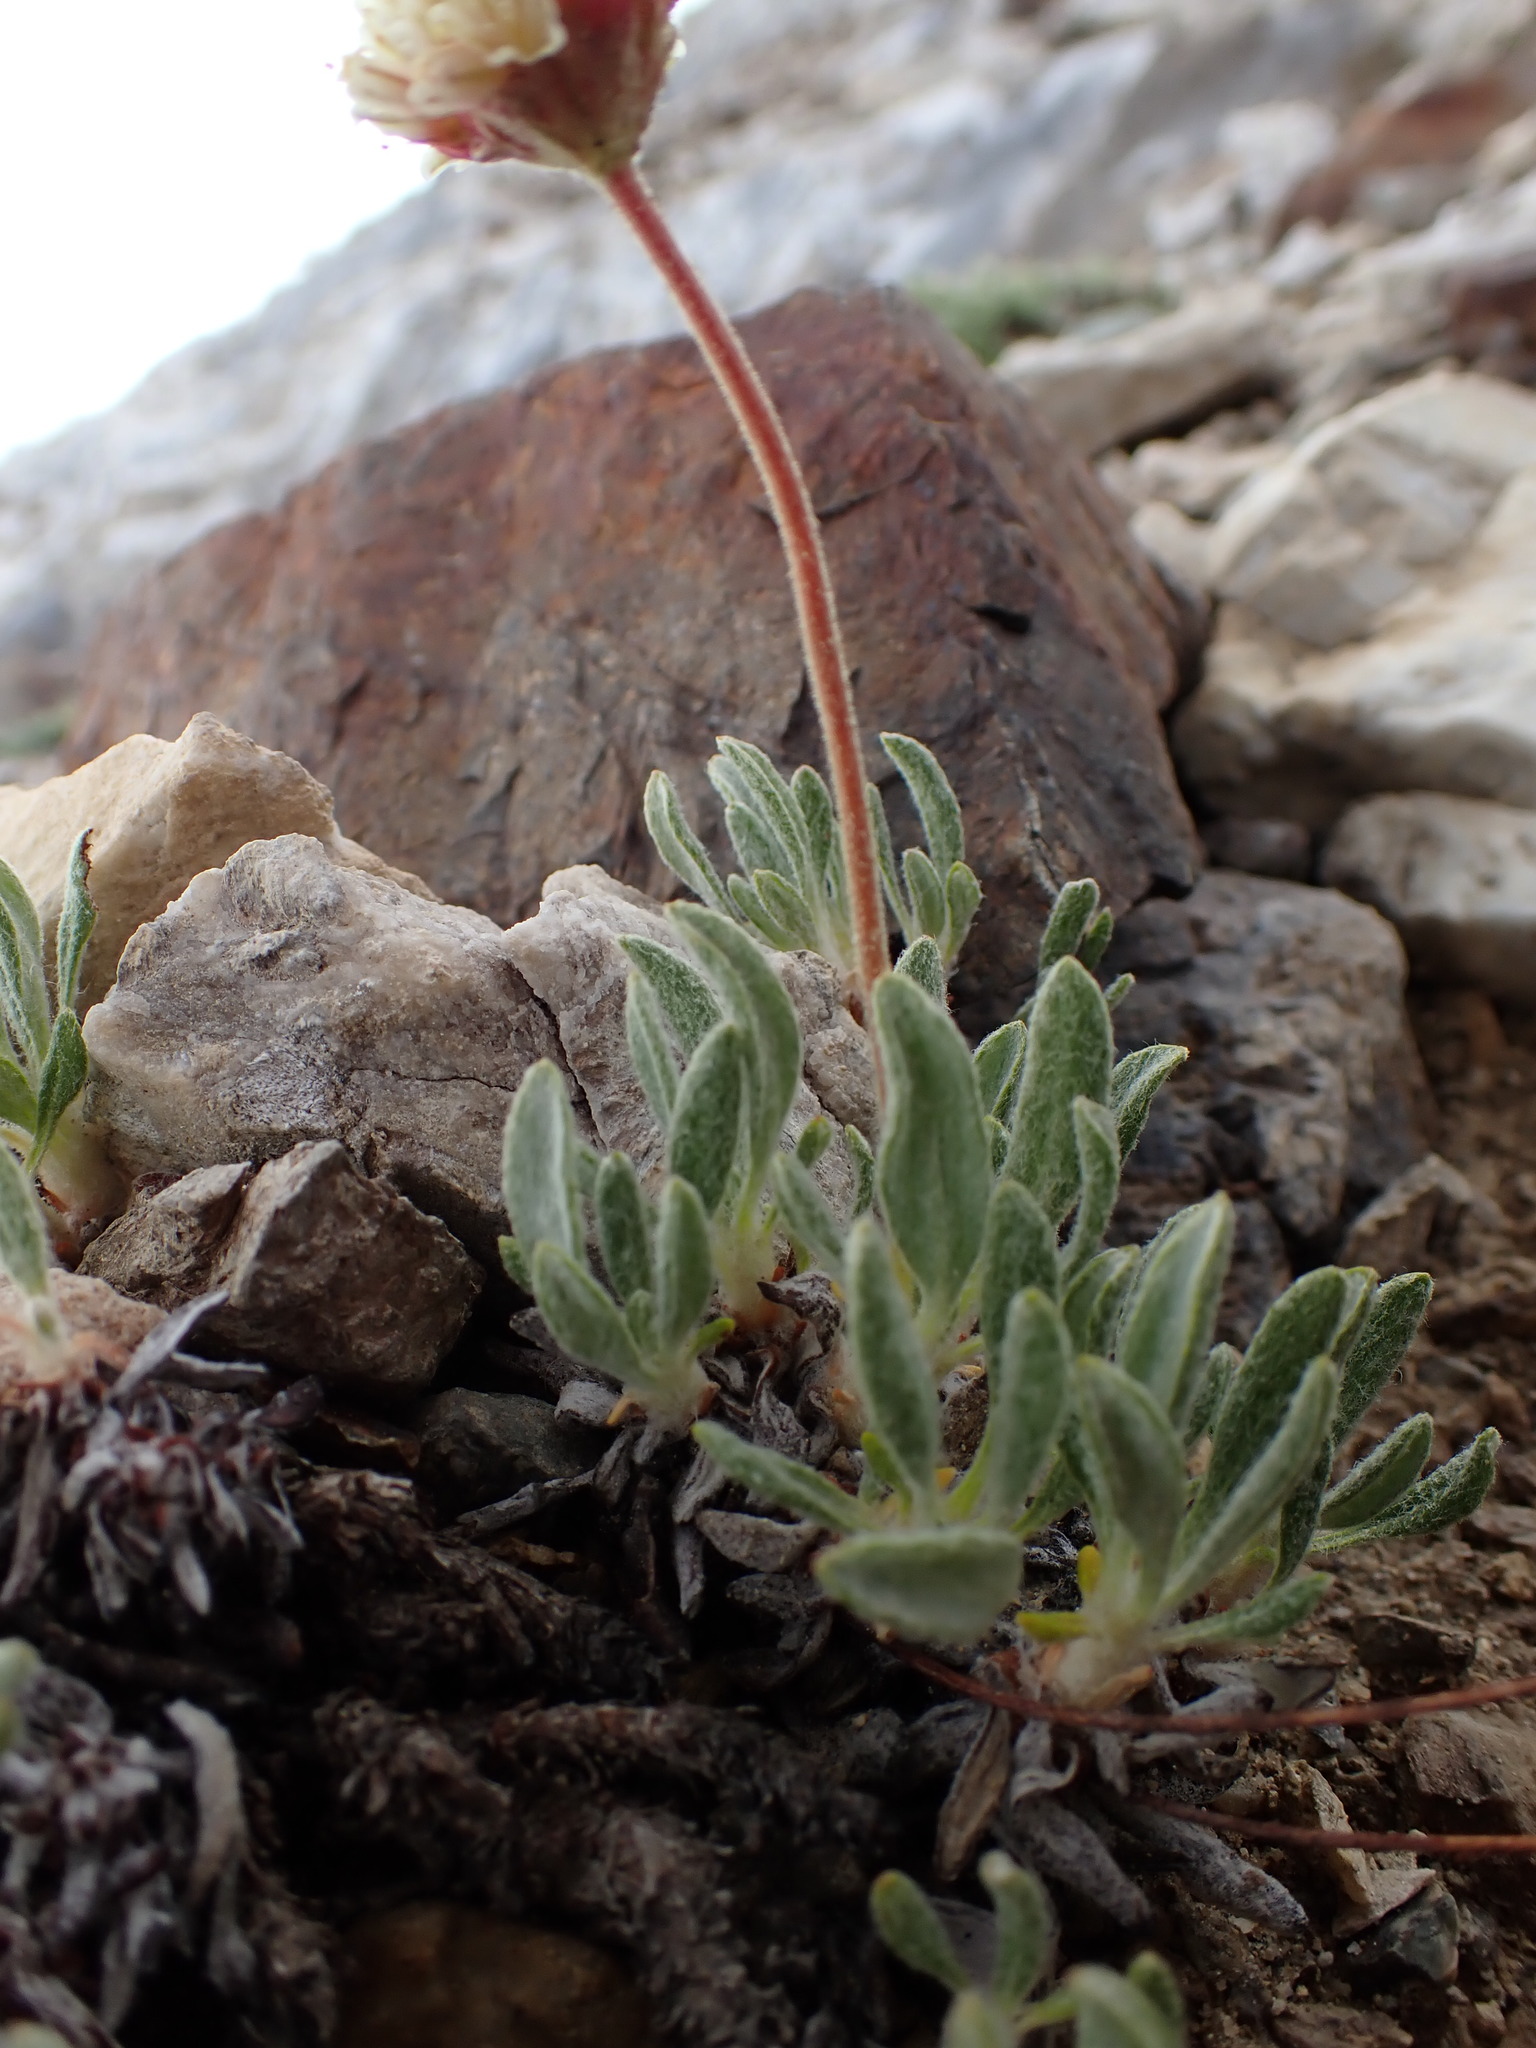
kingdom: Plantae
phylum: Tracheophyta
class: Magnoliopsida
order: Caryophyllales
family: Polygonaceae
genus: Eriogonum
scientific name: Eriogonum rosense
